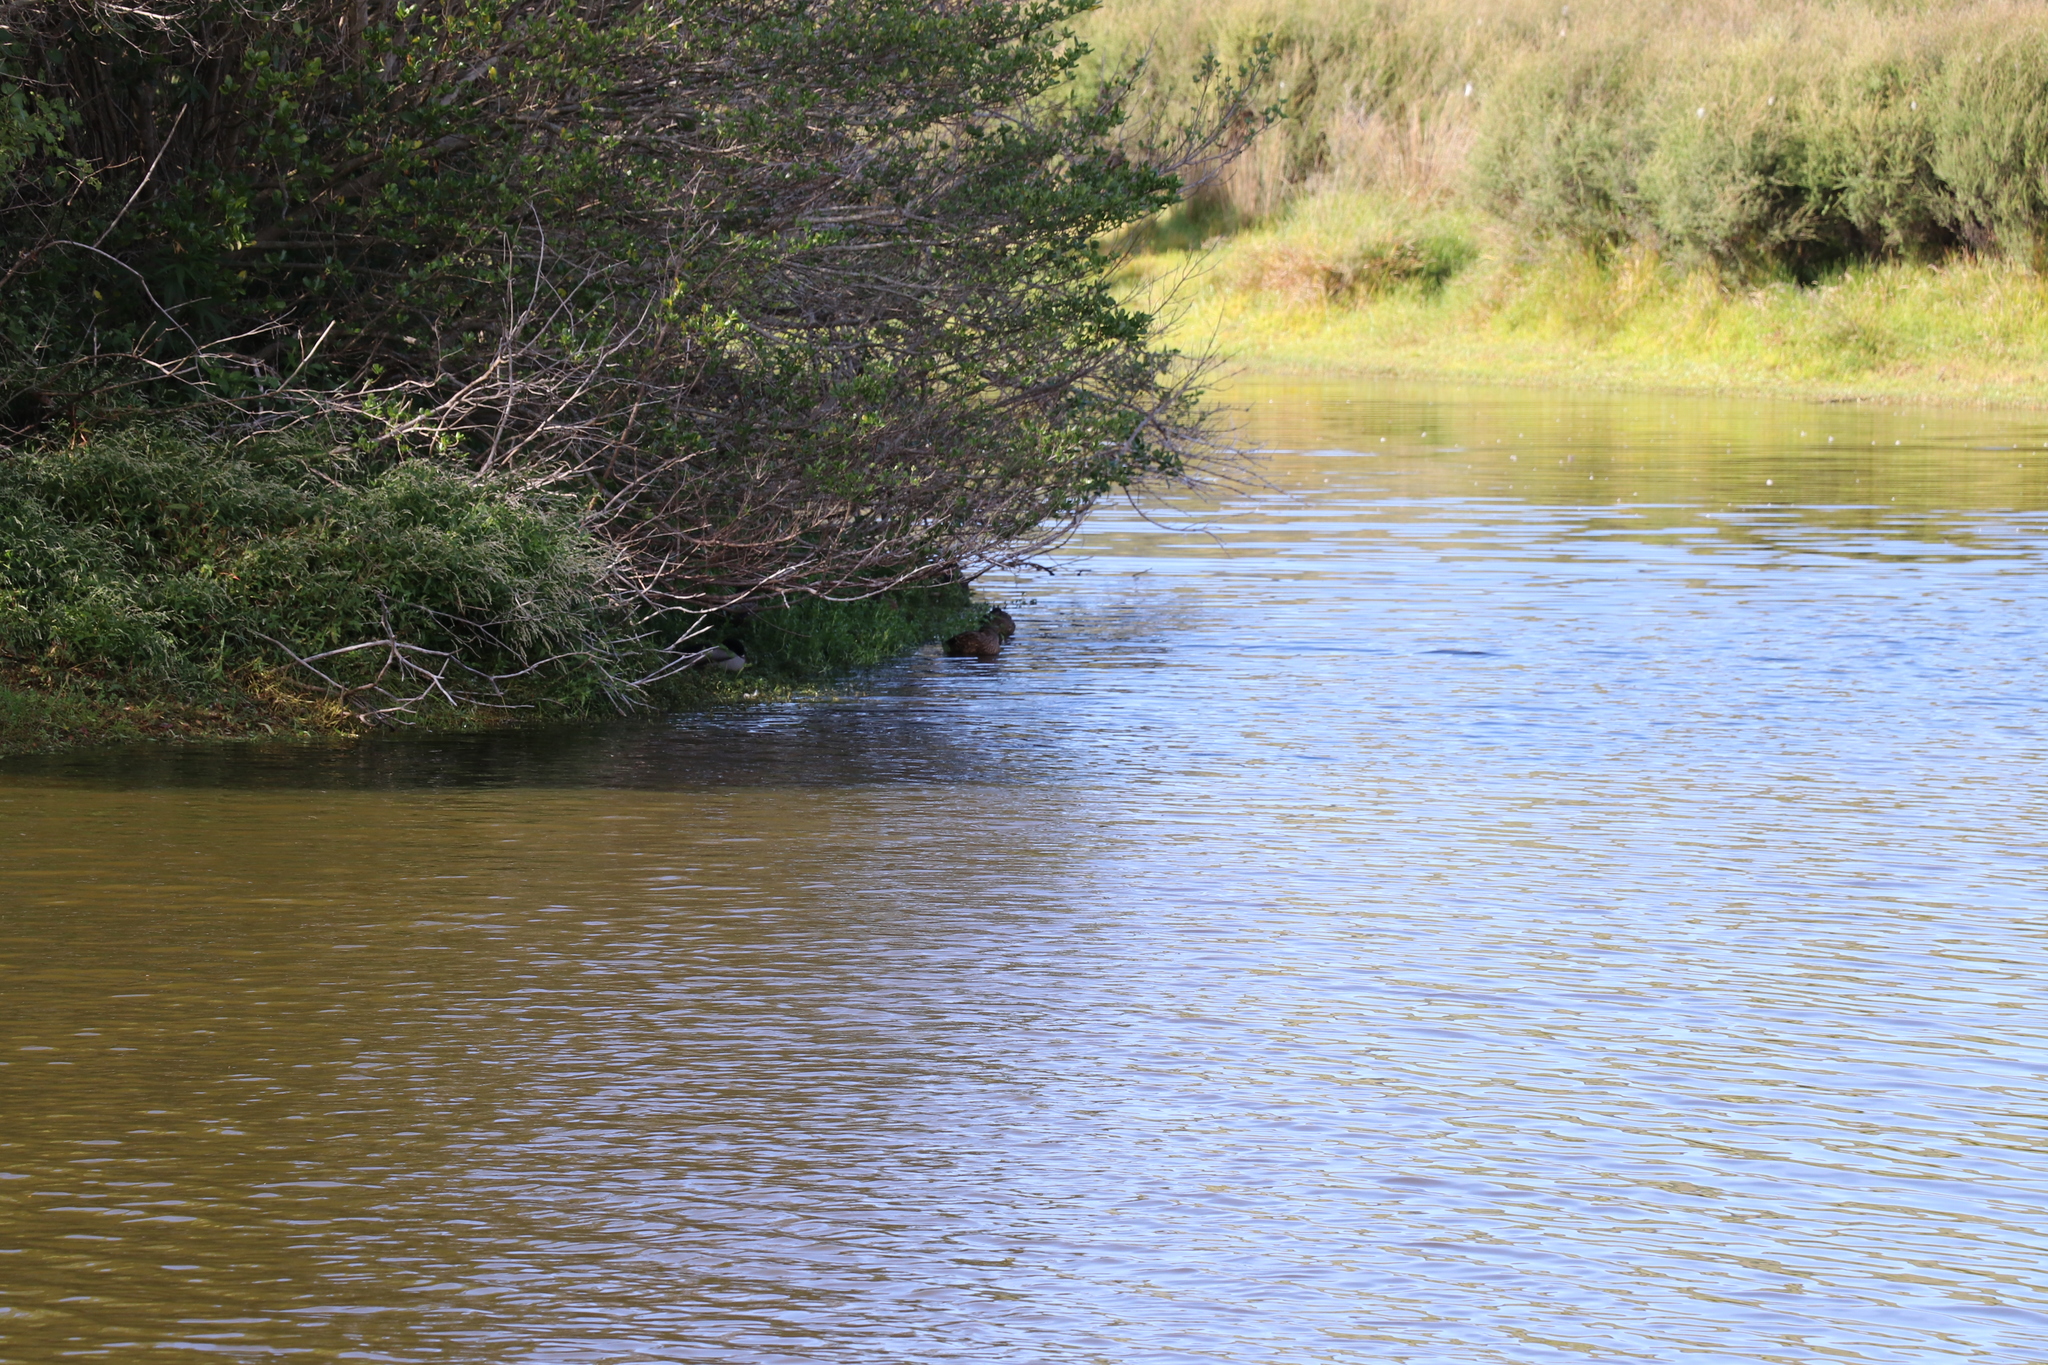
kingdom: Animalia
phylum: Chordata
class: Aves
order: Anseriformes
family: Anatidae
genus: Anas
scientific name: Anas platyrhynchos
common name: Mallard
